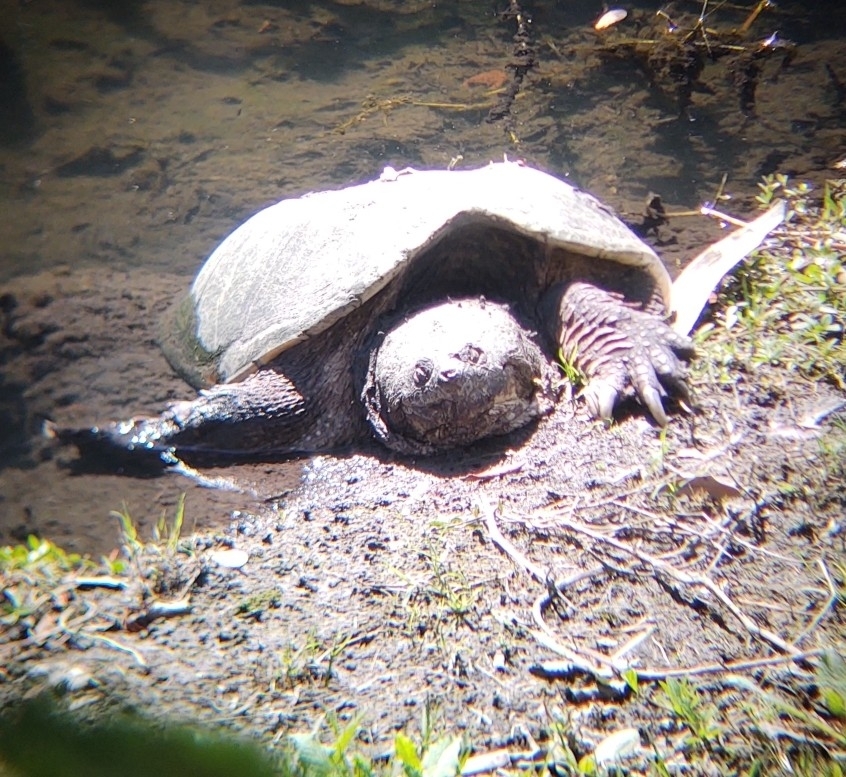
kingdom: Animalia
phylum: Chordata
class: Testudines
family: Chelydridae
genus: Chelydra
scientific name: Chelydra serpentina
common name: Common snapping turtle
